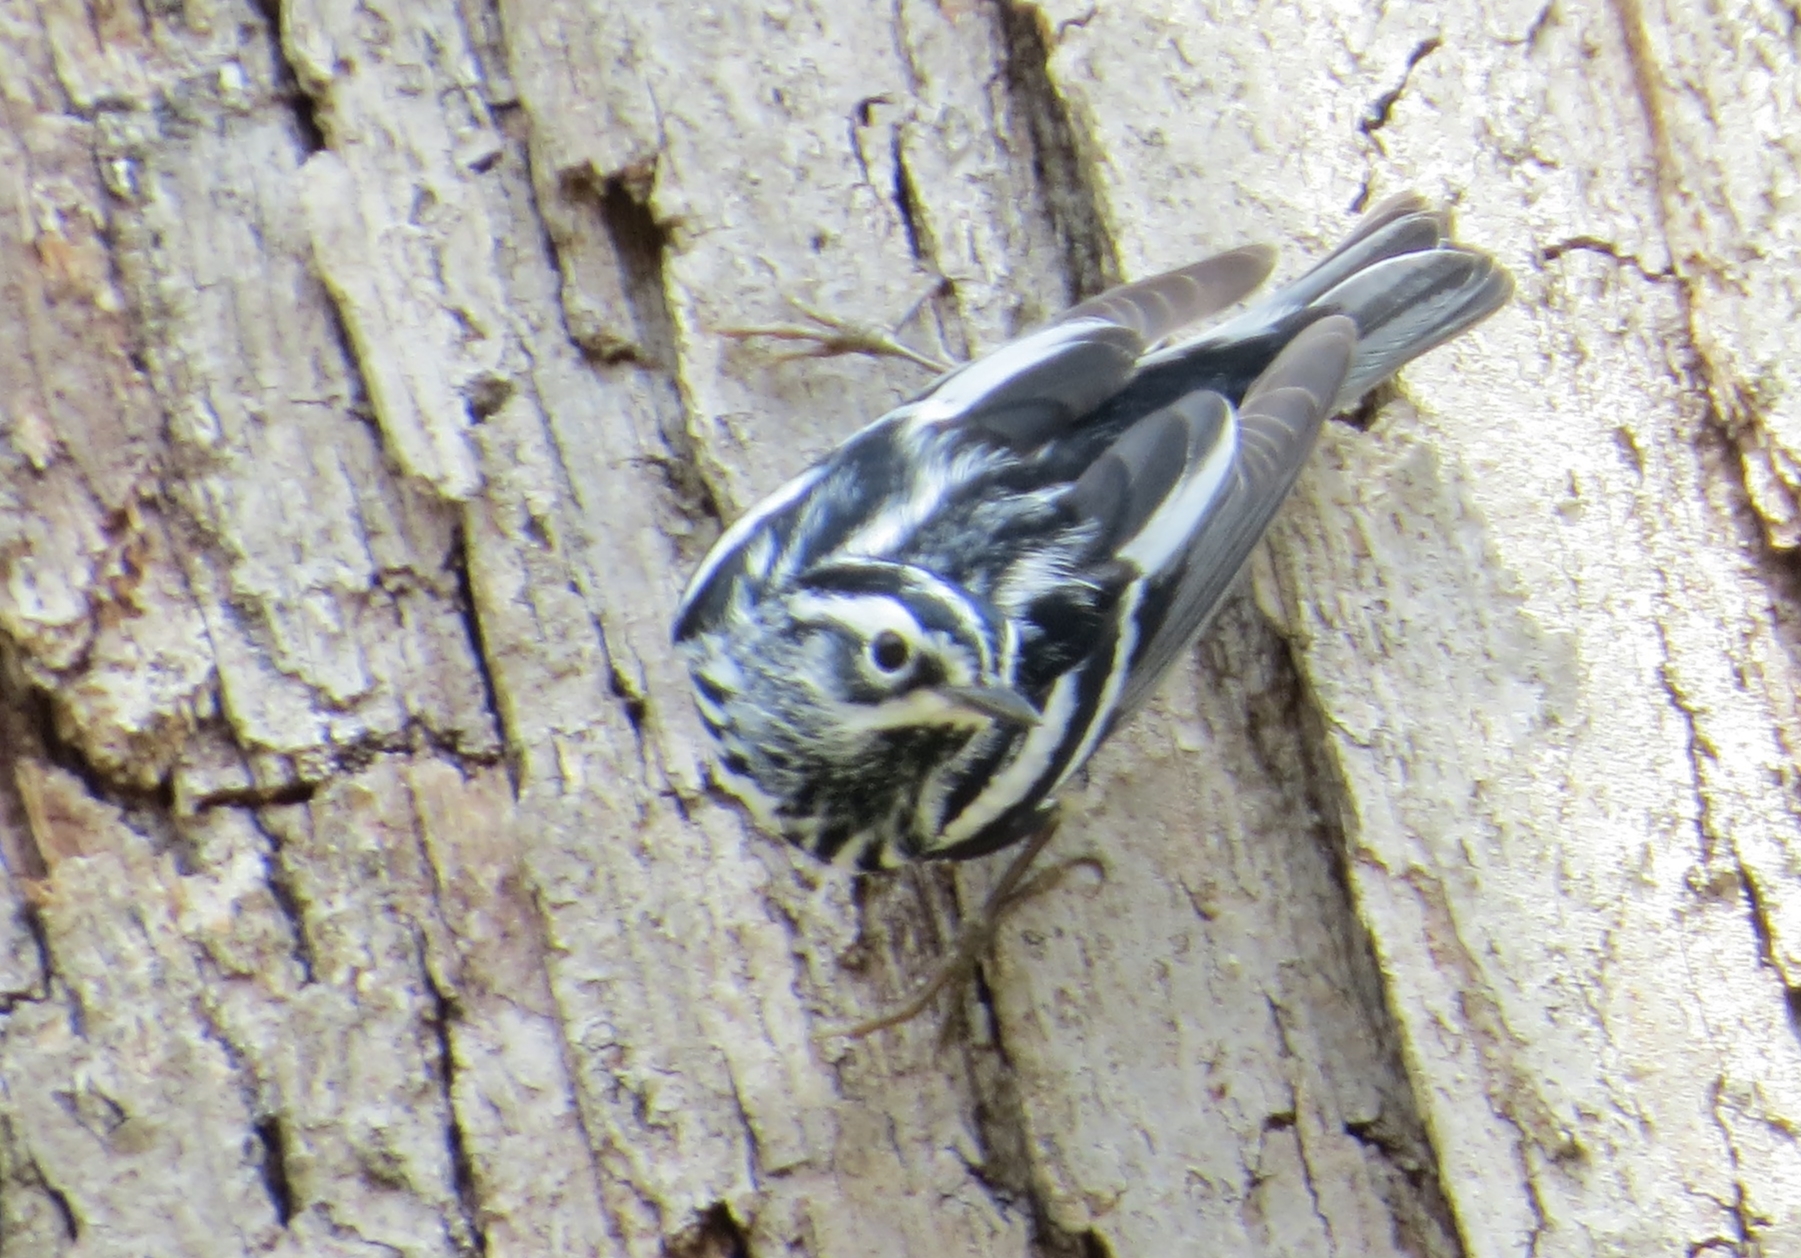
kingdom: Animalia
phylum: Chordata
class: Aves
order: Passeriformes
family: Parulidae
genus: Mniotilta
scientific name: Mniotilta varia
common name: Black-and-white warbler
